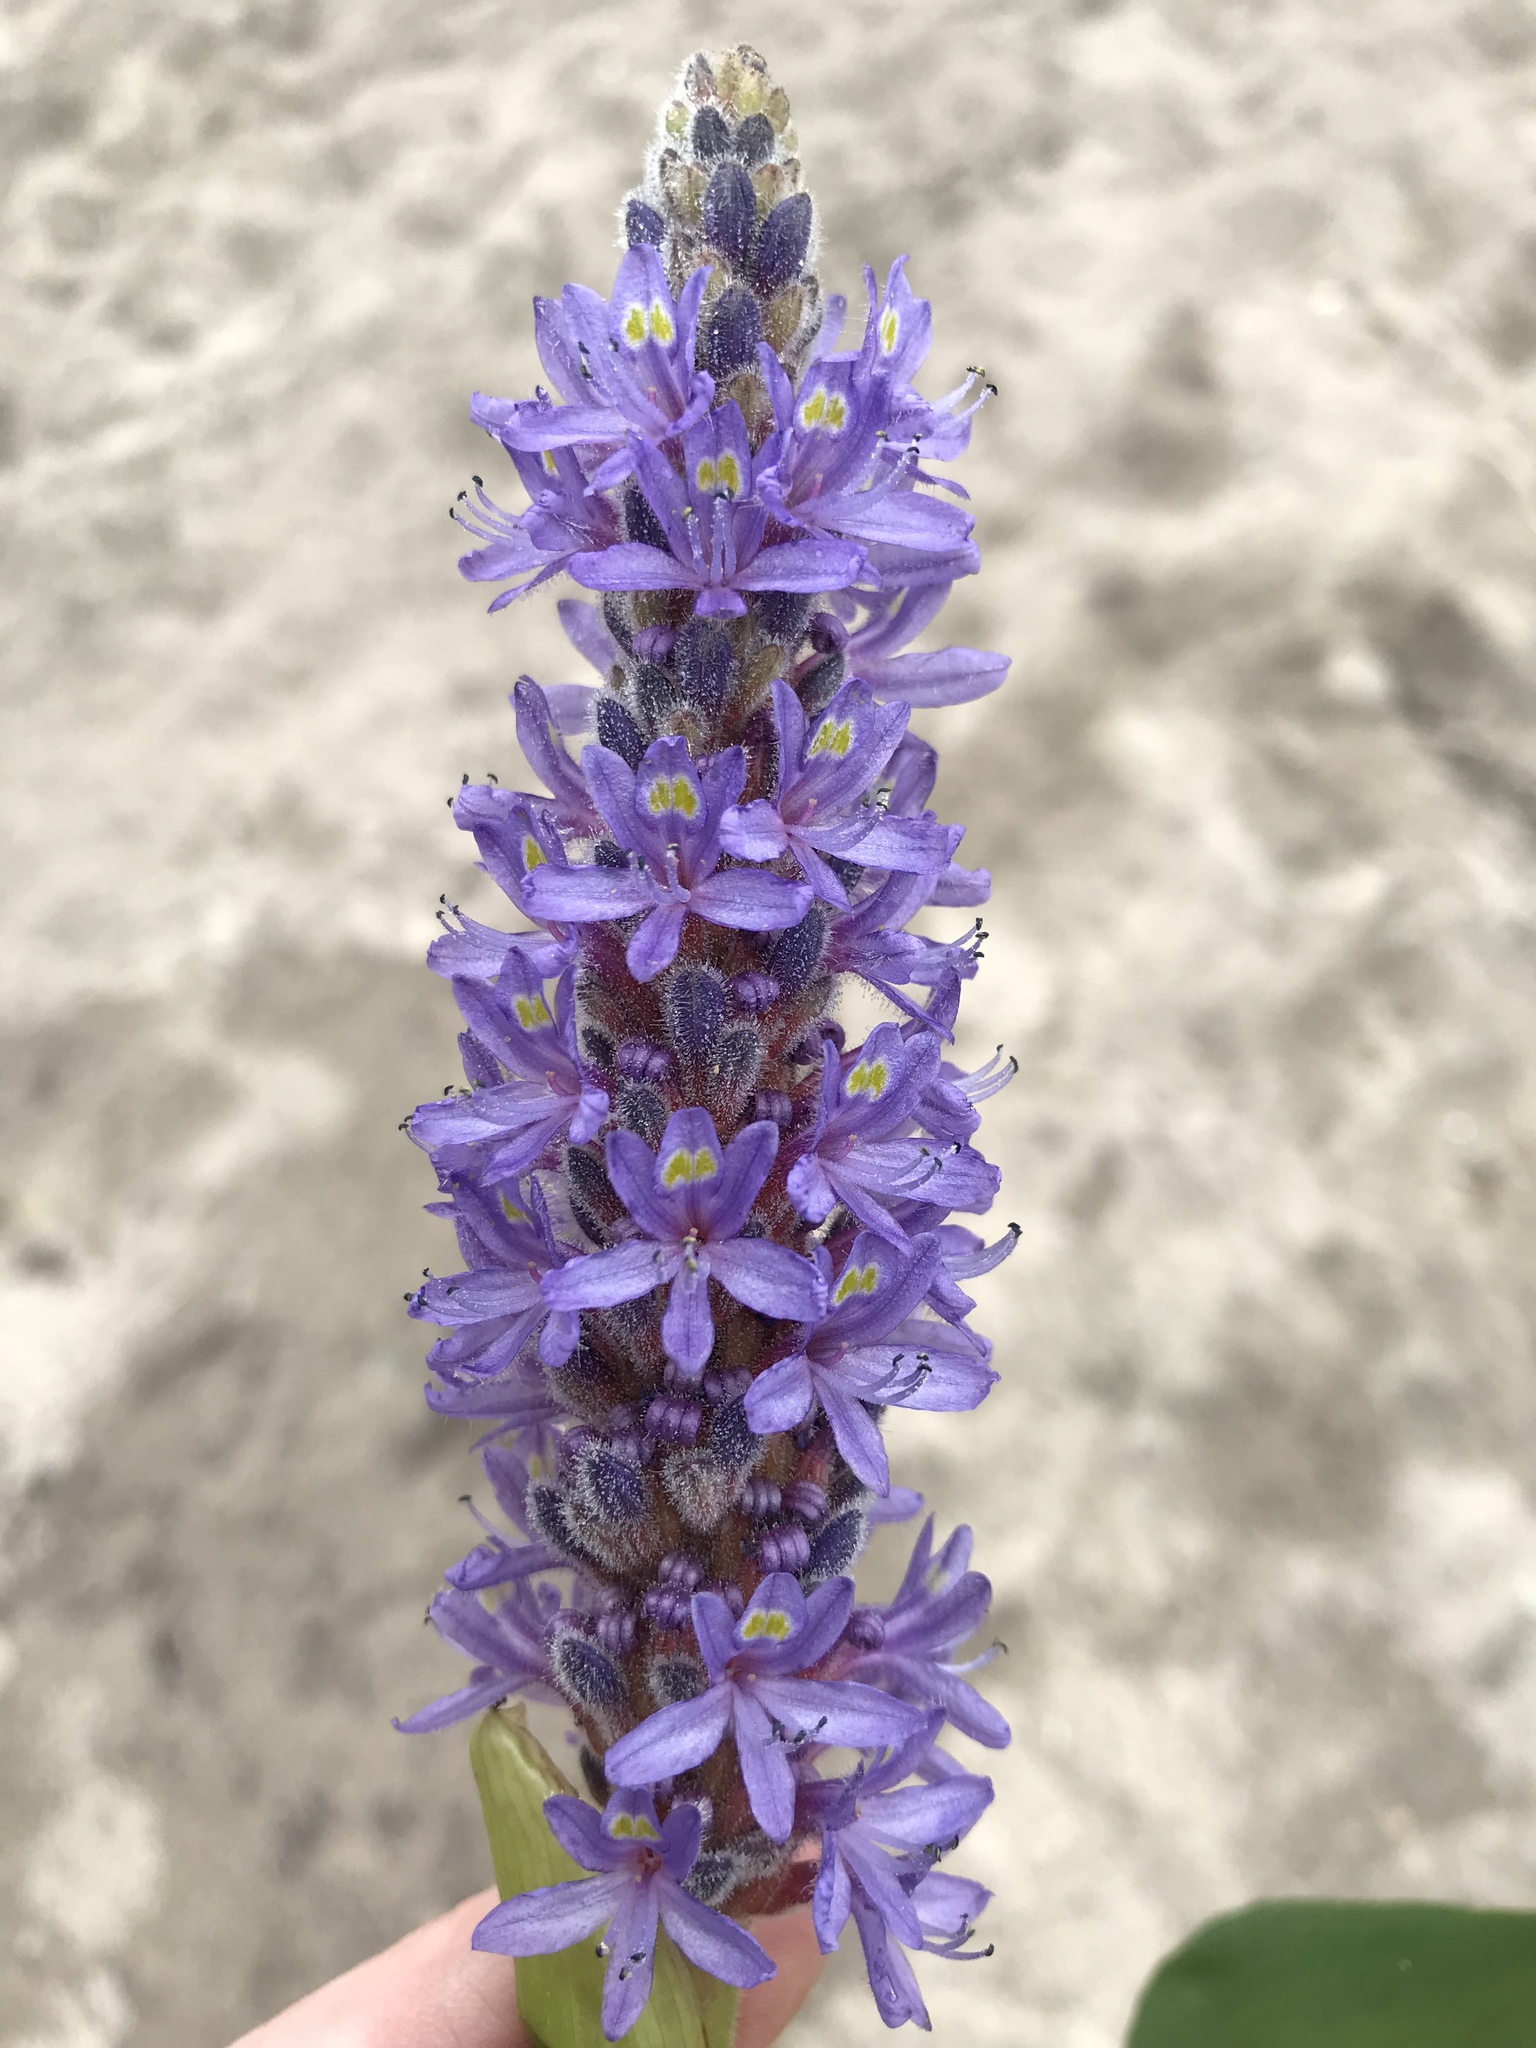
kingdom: Plantae
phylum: Tracheophyta
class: Liliopsida
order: Commelinales
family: Pontederiaceae
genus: Pontederia
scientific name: Pontederia cordata
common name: Pickerelweed
